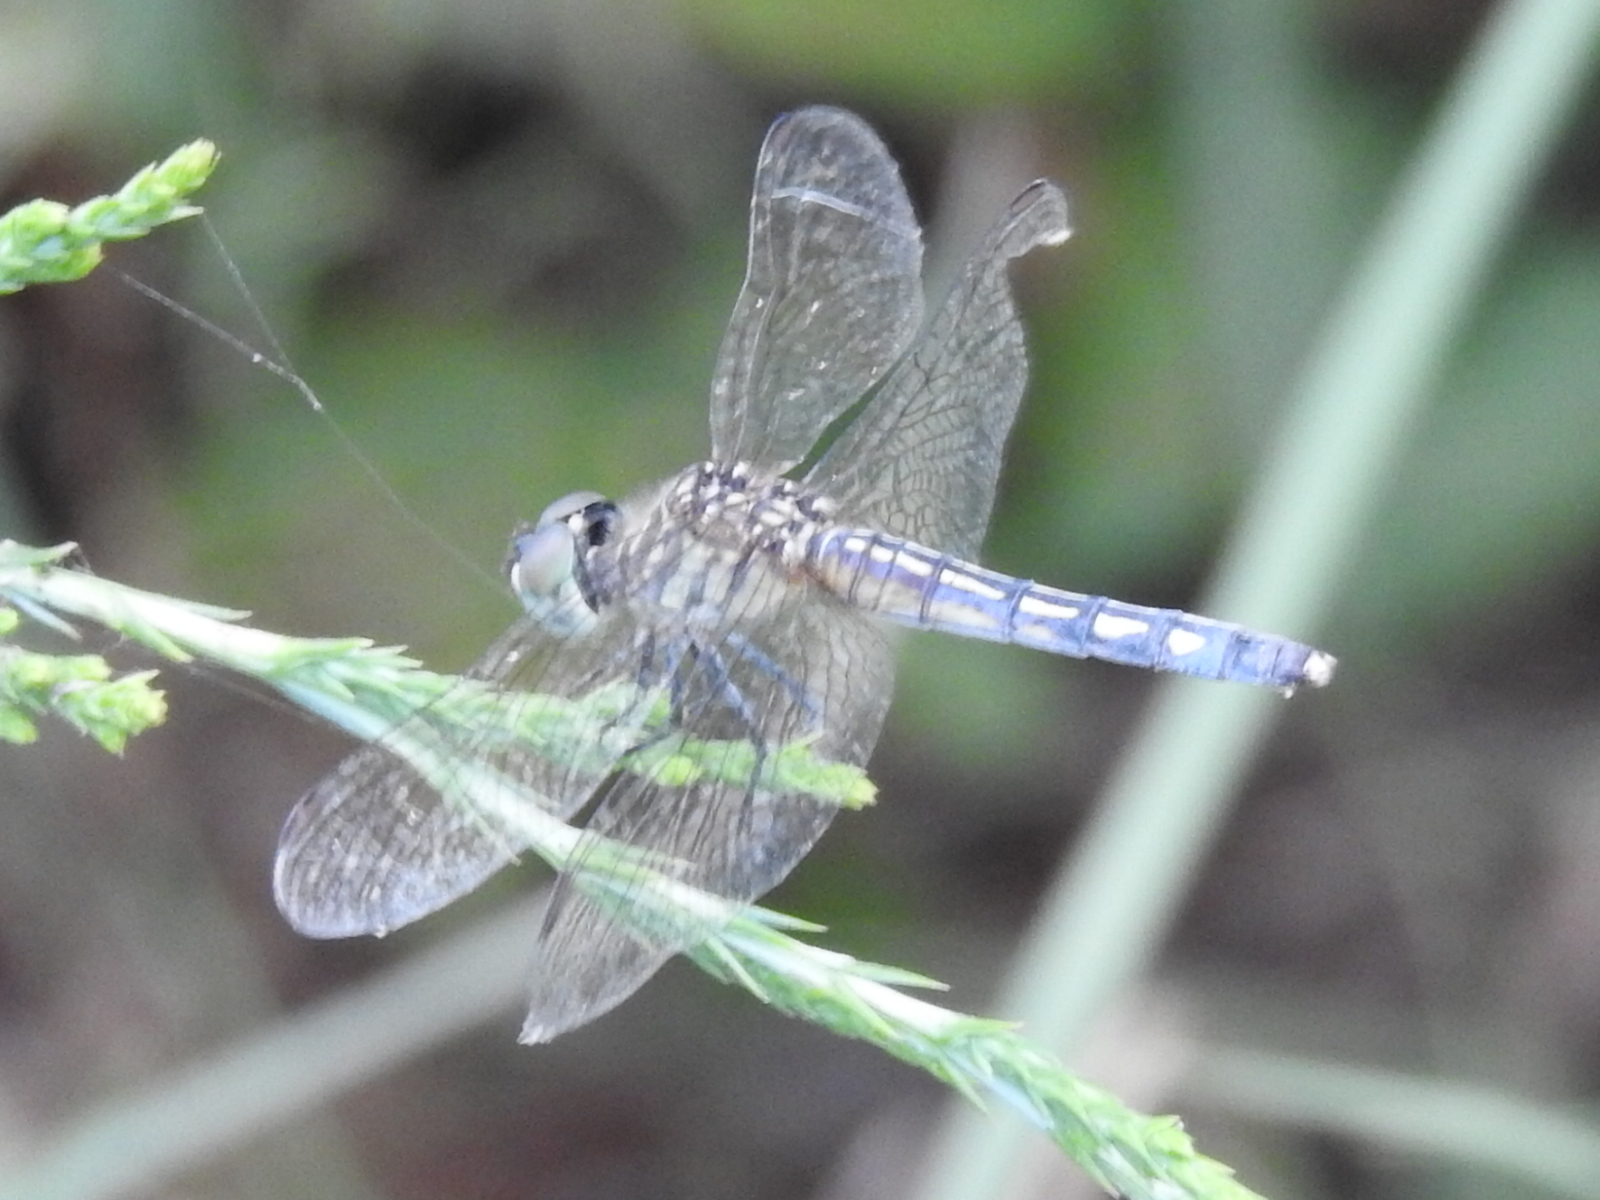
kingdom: Animalia
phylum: Arthropoda
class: Insecta
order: Odonata
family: Libellulidae
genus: Pachydiplax
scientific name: Pachydiplax longipennis
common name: Blue dasher
